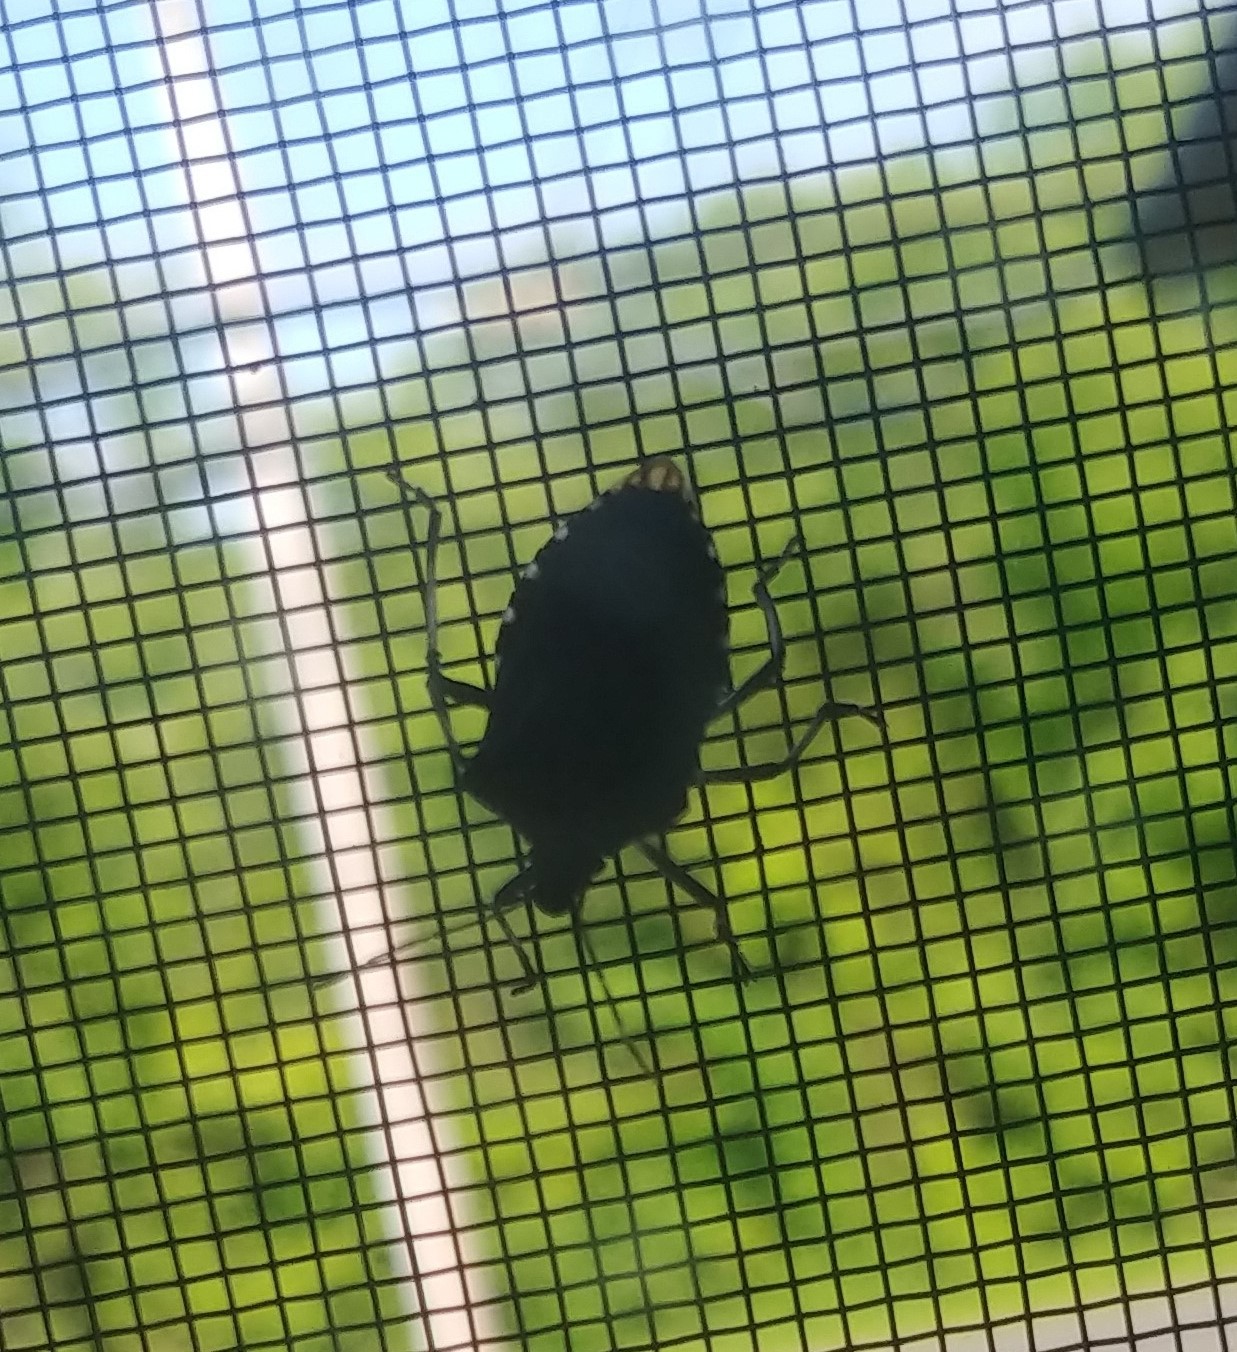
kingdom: Animalia
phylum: Arthropoda
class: Insecta
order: Hemiptera
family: Pentatomidae
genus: Halyomorpha
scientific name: Halyomorpha halys
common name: Brown marmorated stink bug
